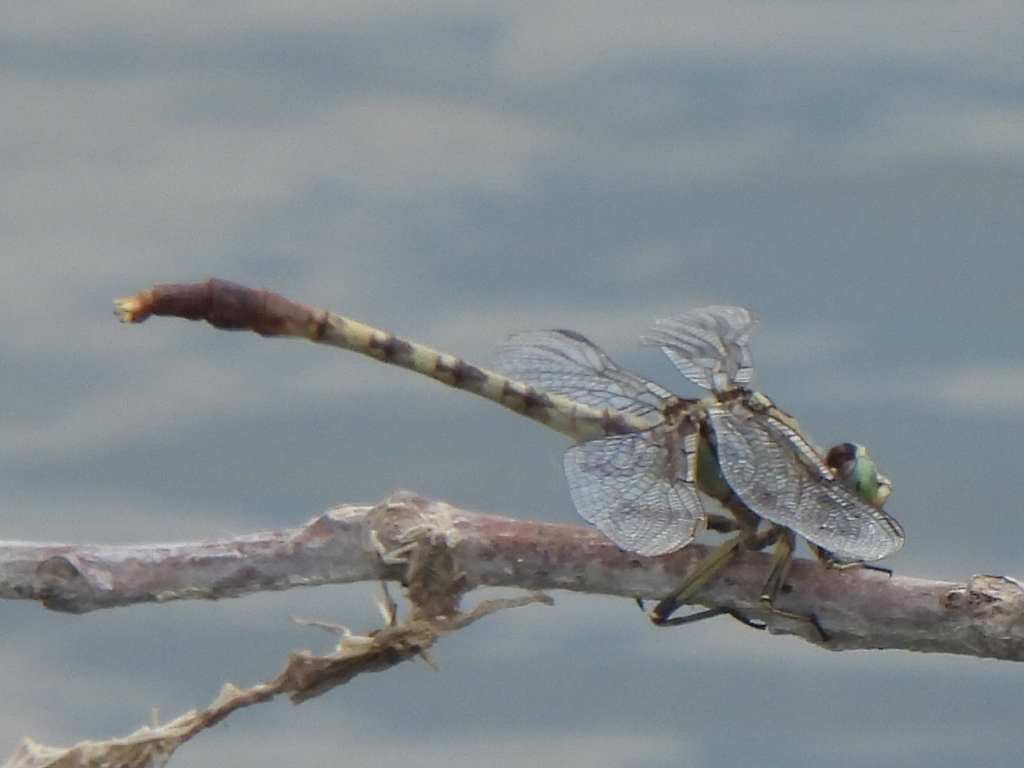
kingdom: Animalia
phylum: Arthropoda
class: Insecta
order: Odonata
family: Gomphidae
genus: Arigomphus
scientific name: Arigomphus submedianus
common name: Jade clubtail
